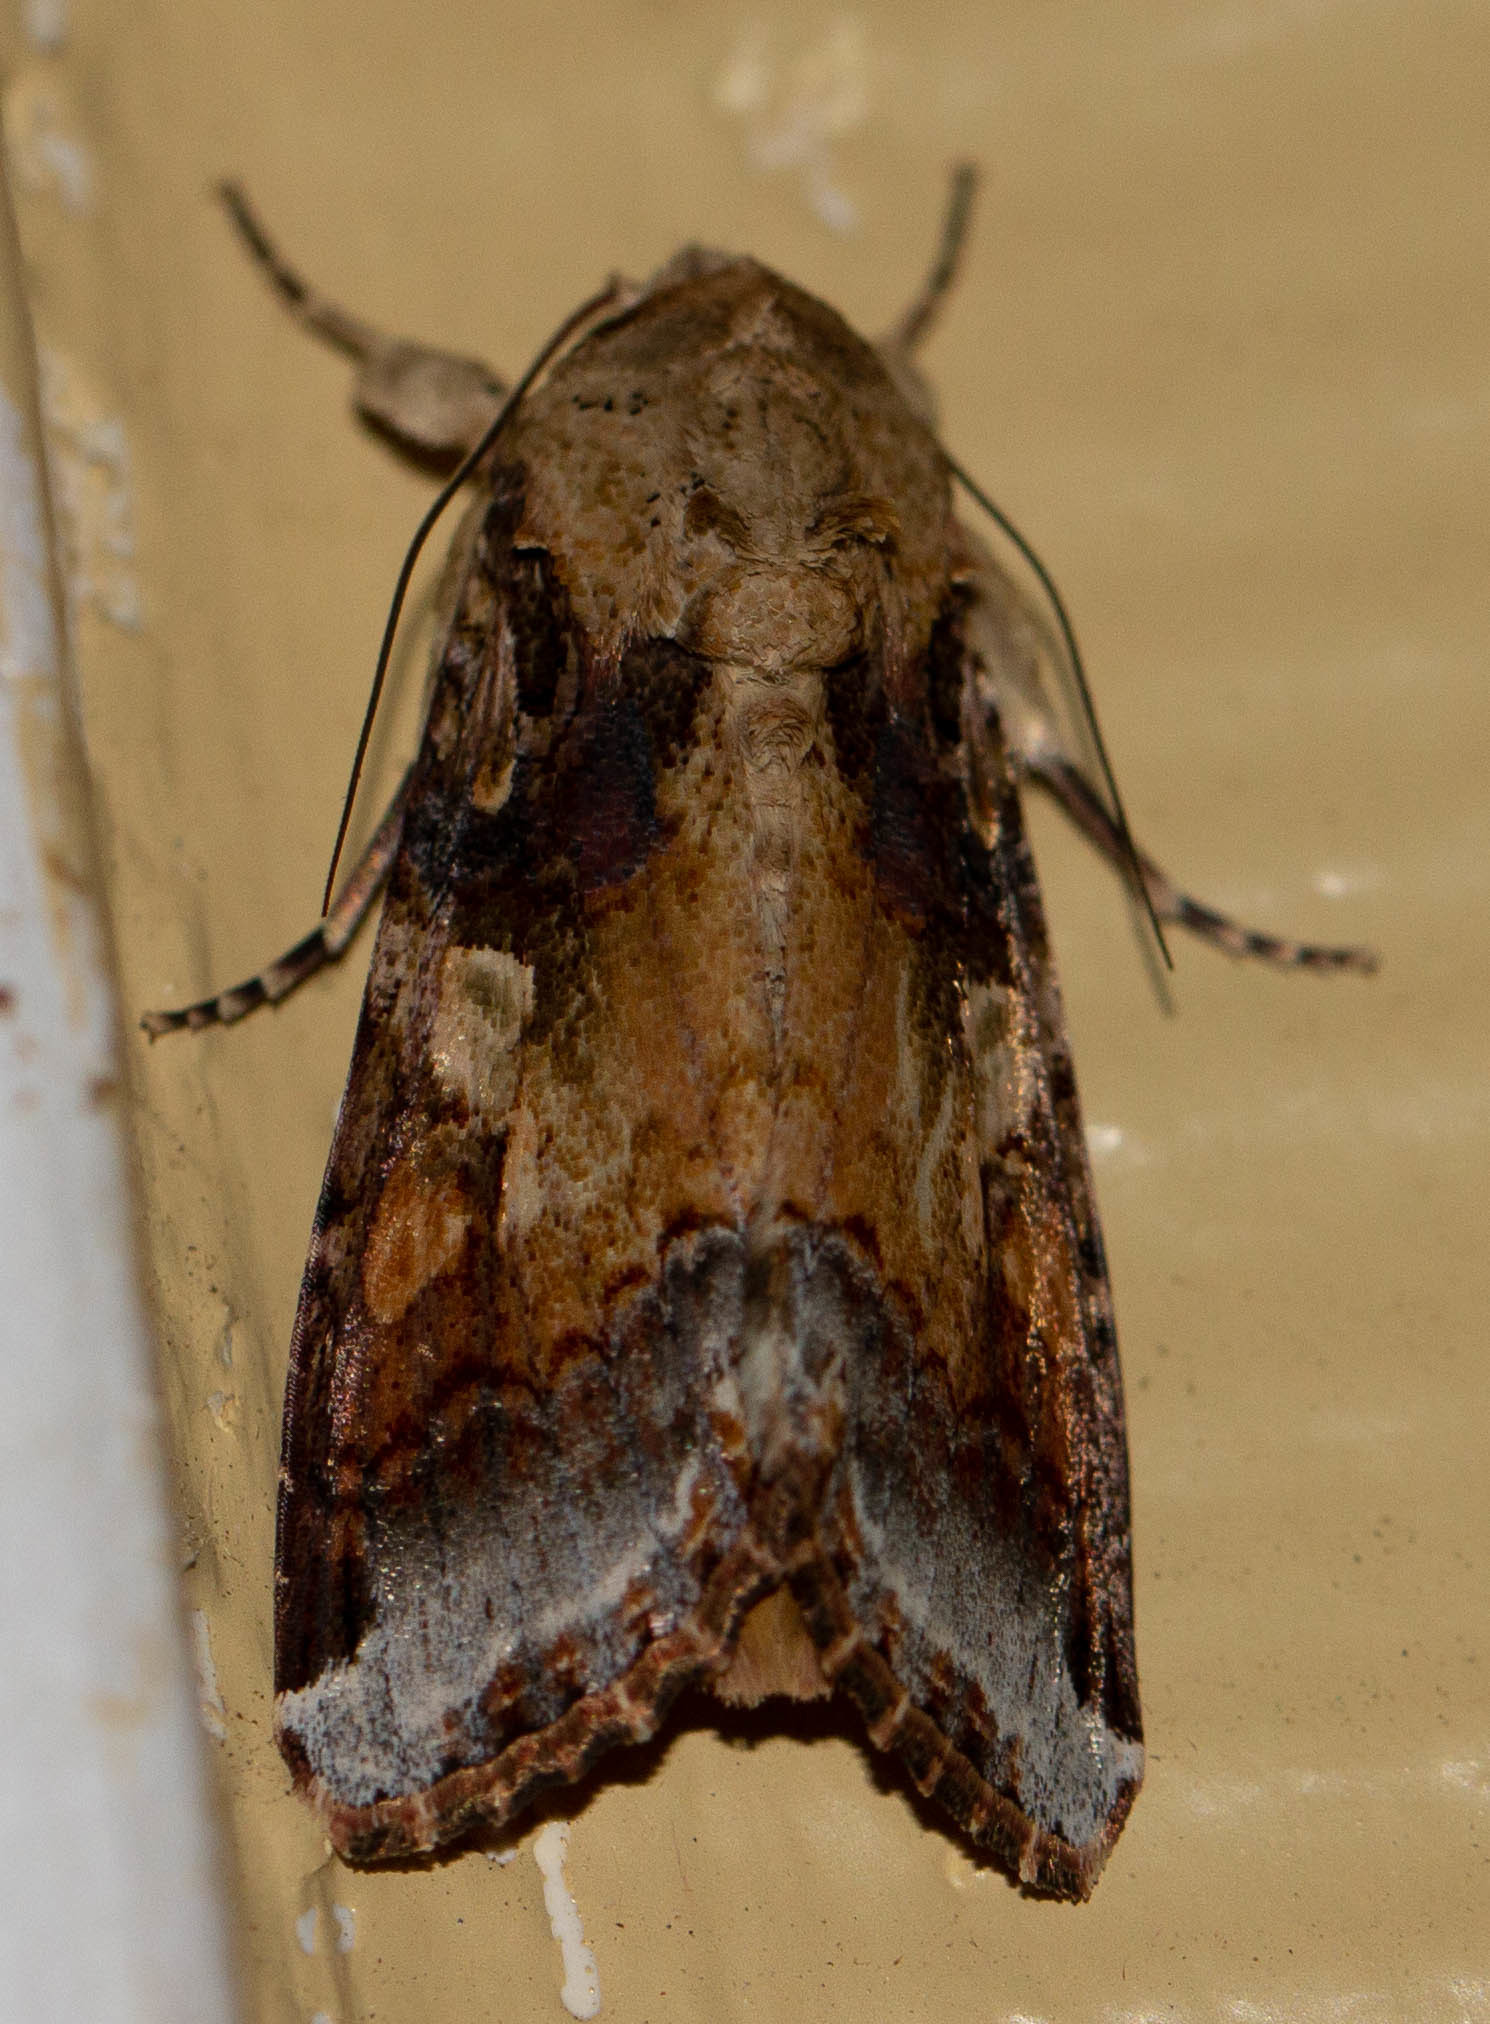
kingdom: Animalia
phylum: Arthropoda
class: Insecta
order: Lepidoptera
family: Noctuidae
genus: Spodoptera
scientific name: Spodoptera latifascia
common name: Velvet armyworm moth
